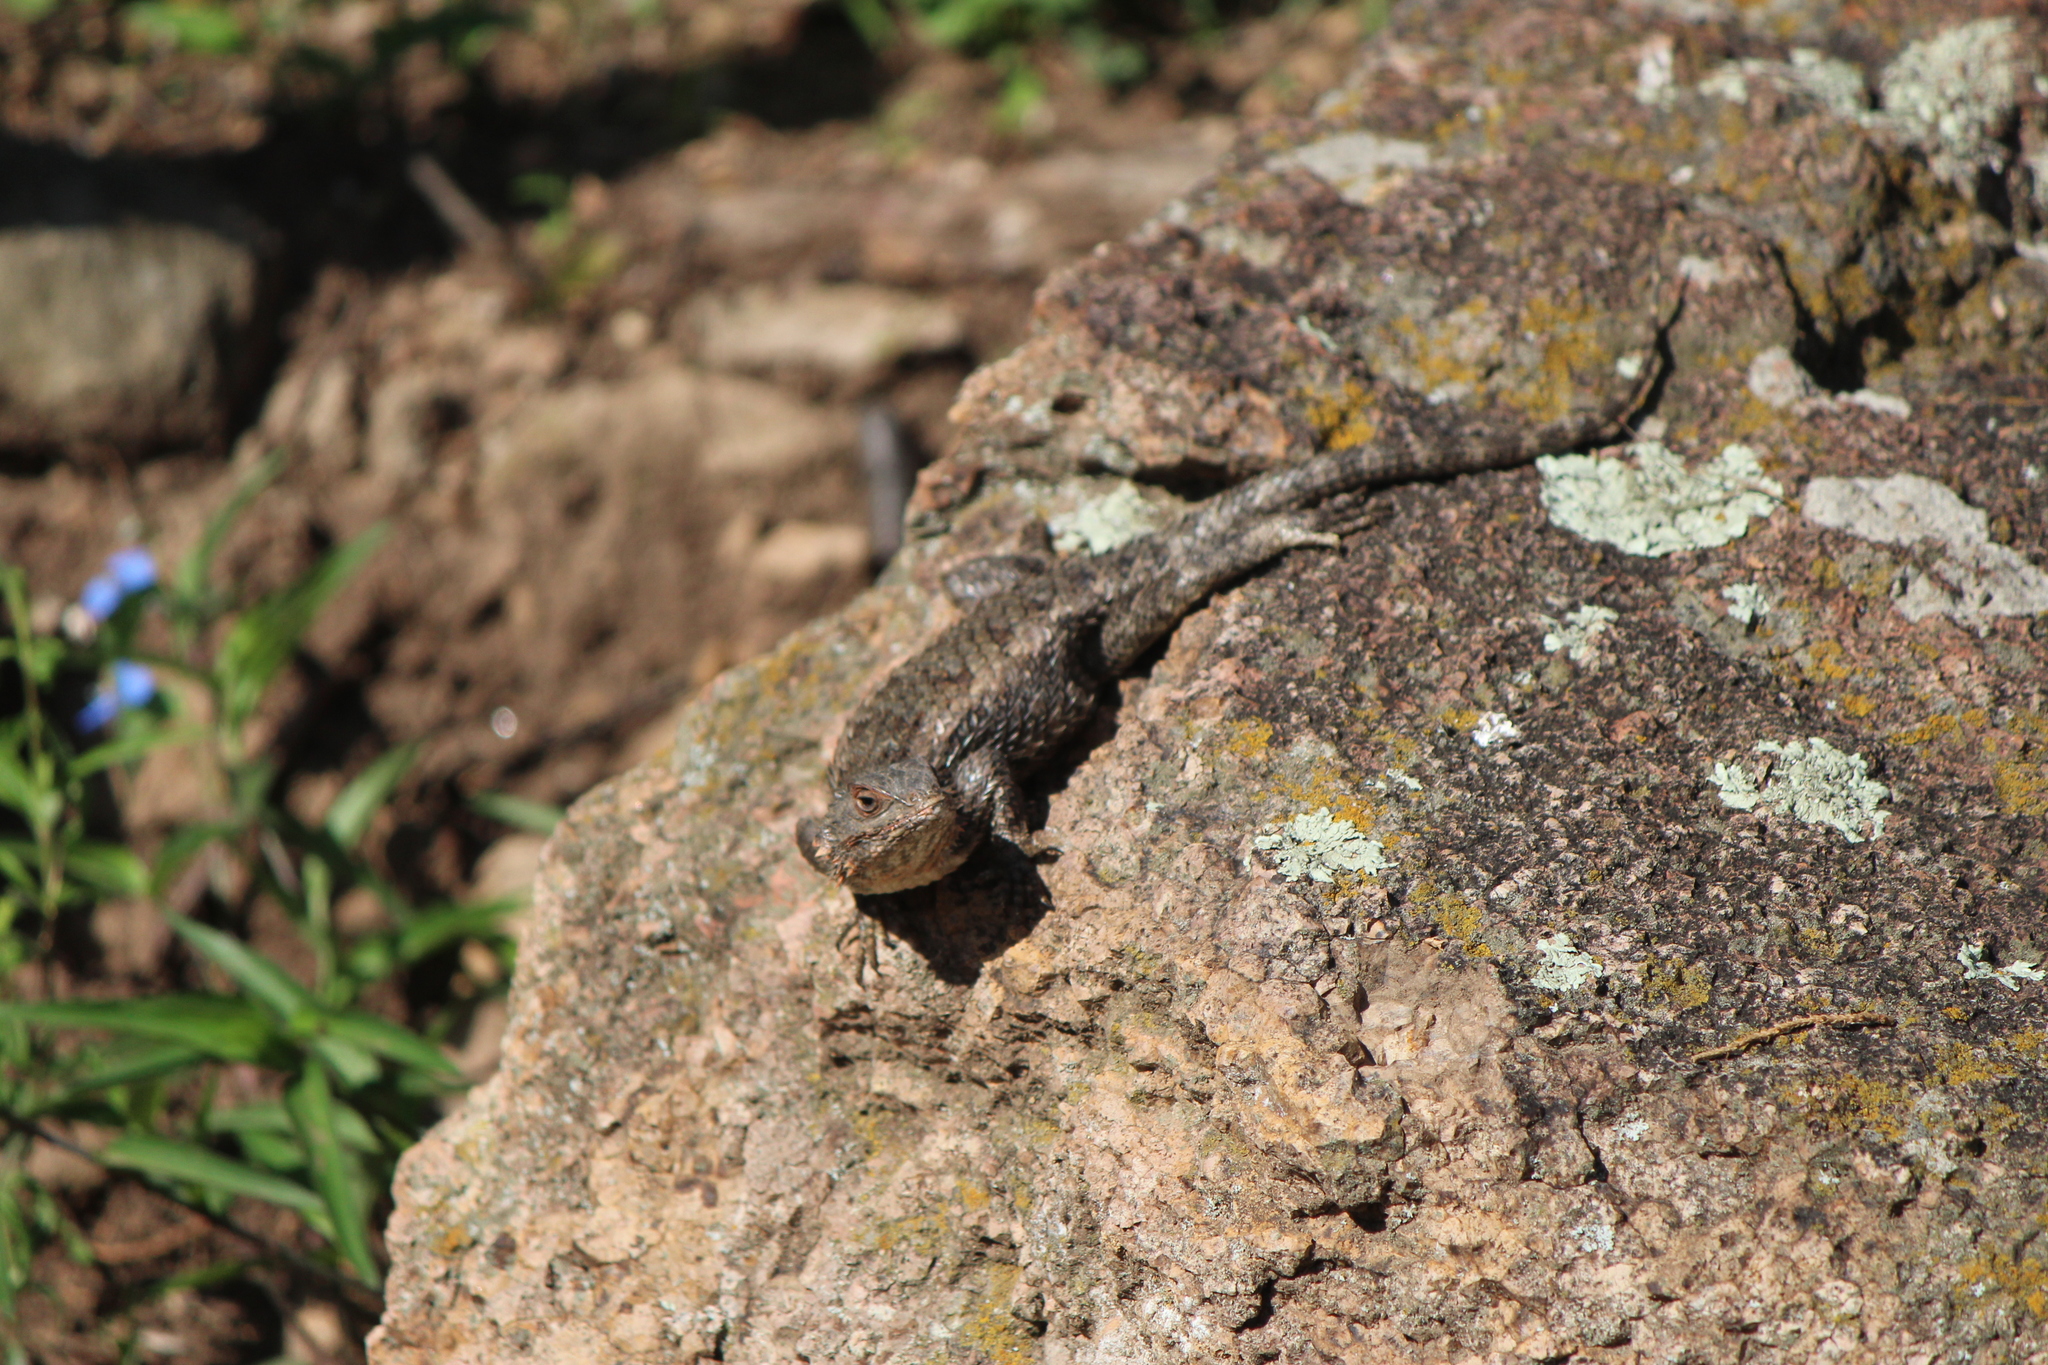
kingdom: Animalia
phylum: Chordata
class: Squamata
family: Phrynosomatidae
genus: Sceloporus
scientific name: Sceloporus spinosus
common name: Blue-spotted spiny lizard [caeruleopunctatus]
